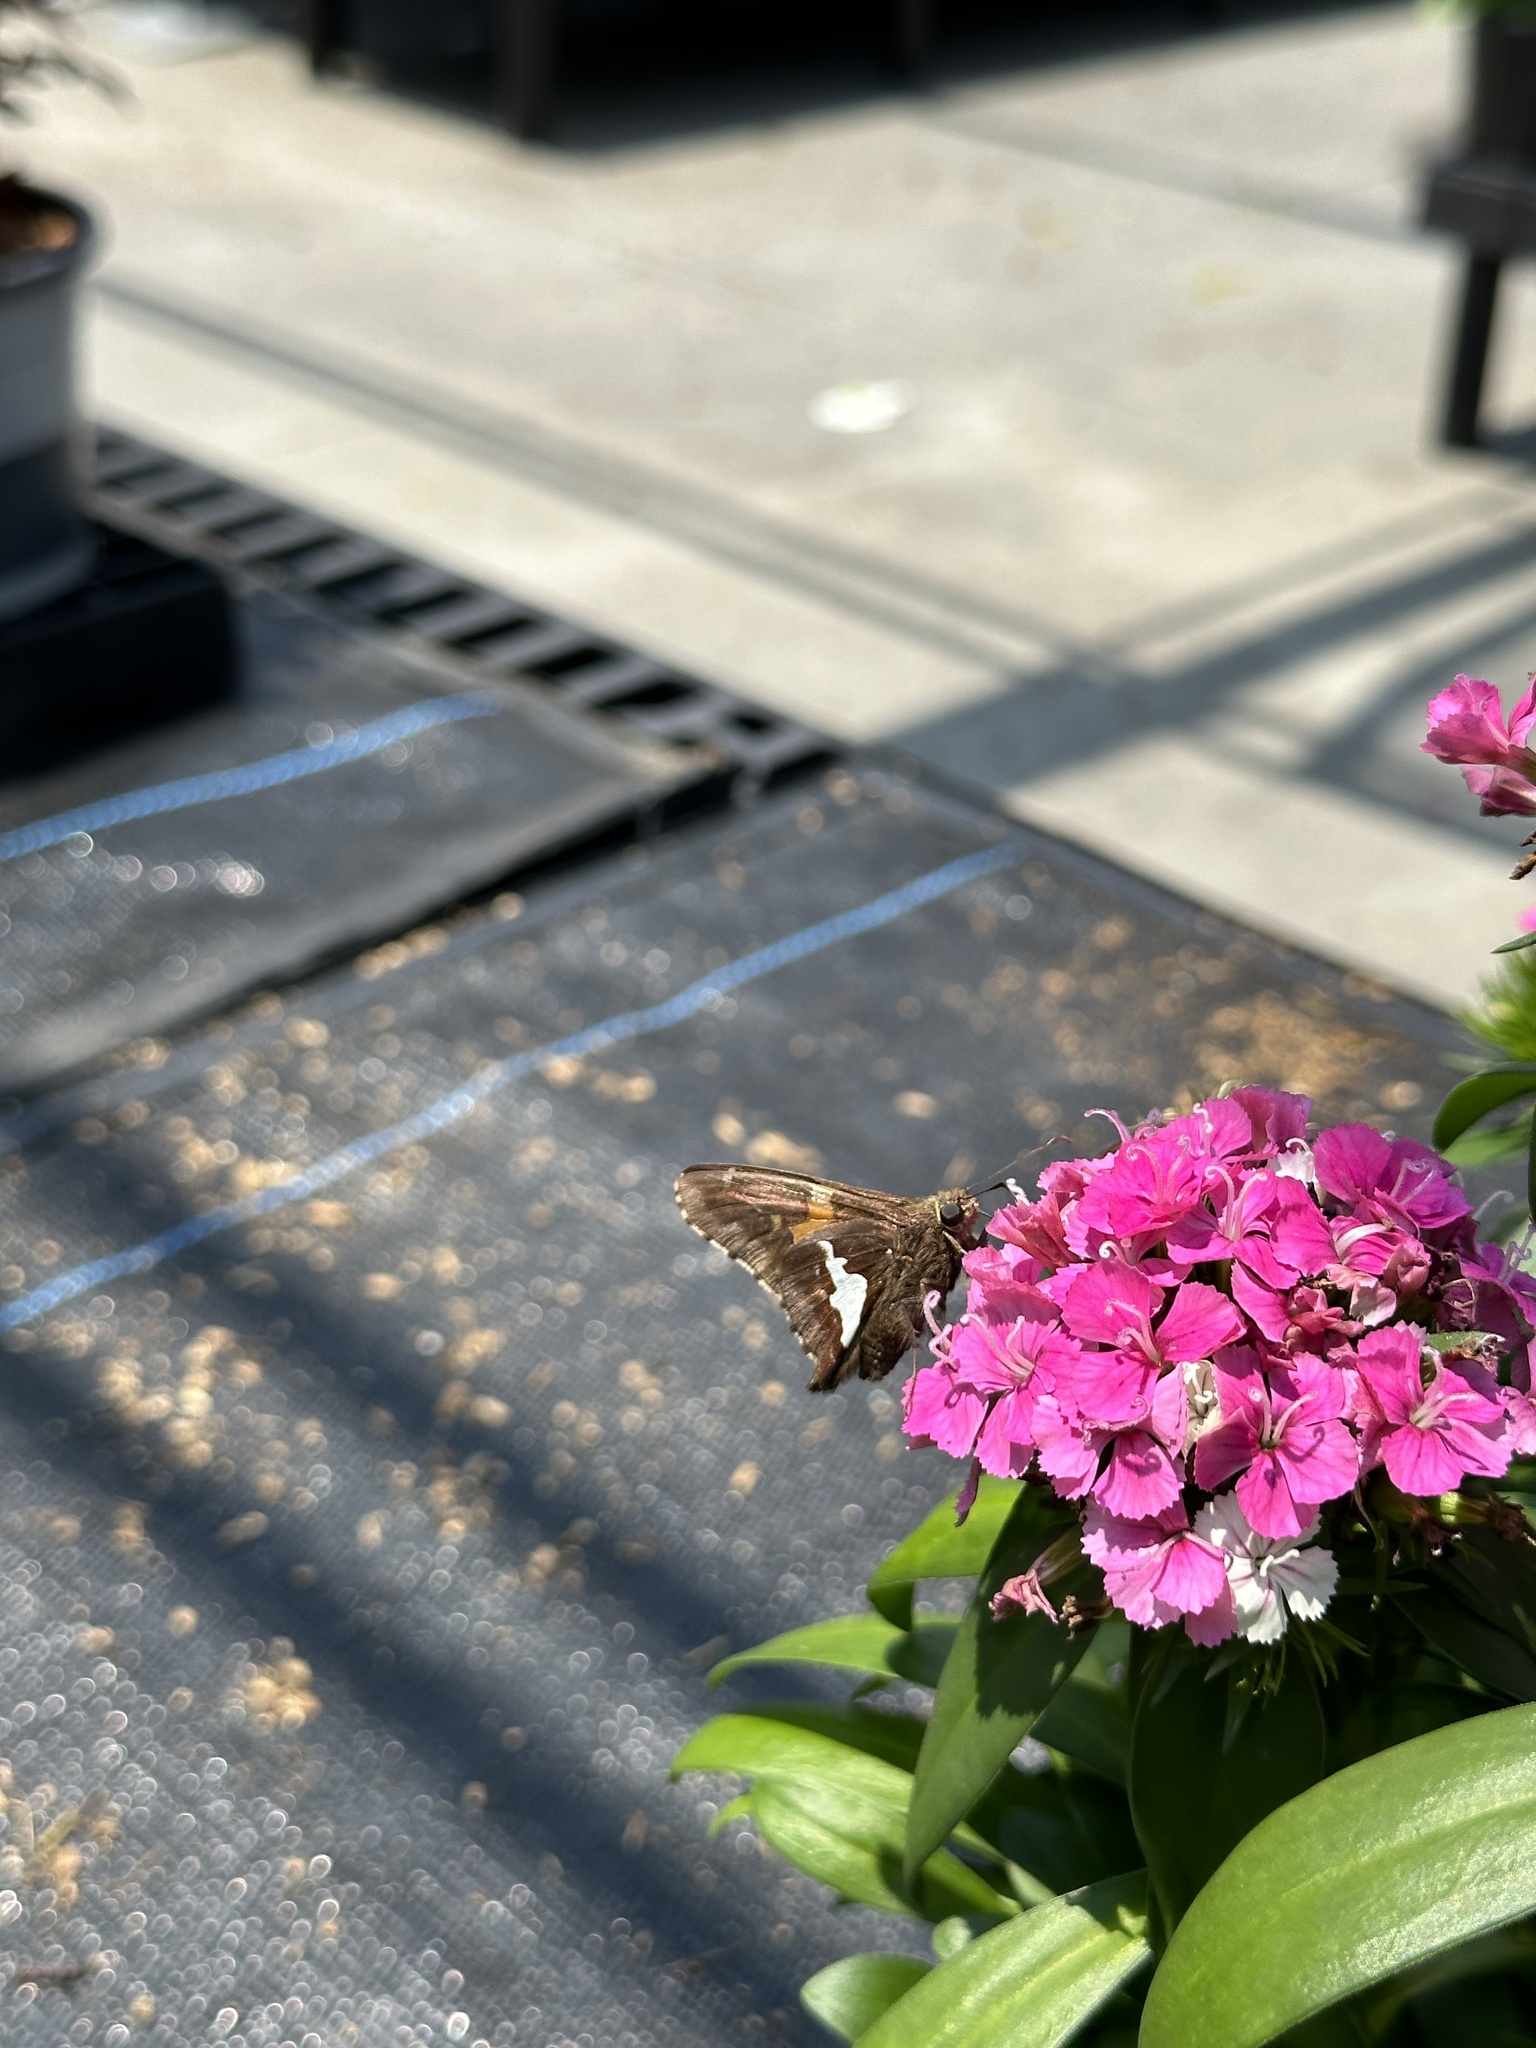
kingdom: Animalia
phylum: Arthropoda
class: Insecta
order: Lepidoptera
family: Hesperiidae
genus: Epargyreus
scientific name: Epargyreus clarus
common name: Silver-spotted skipper
